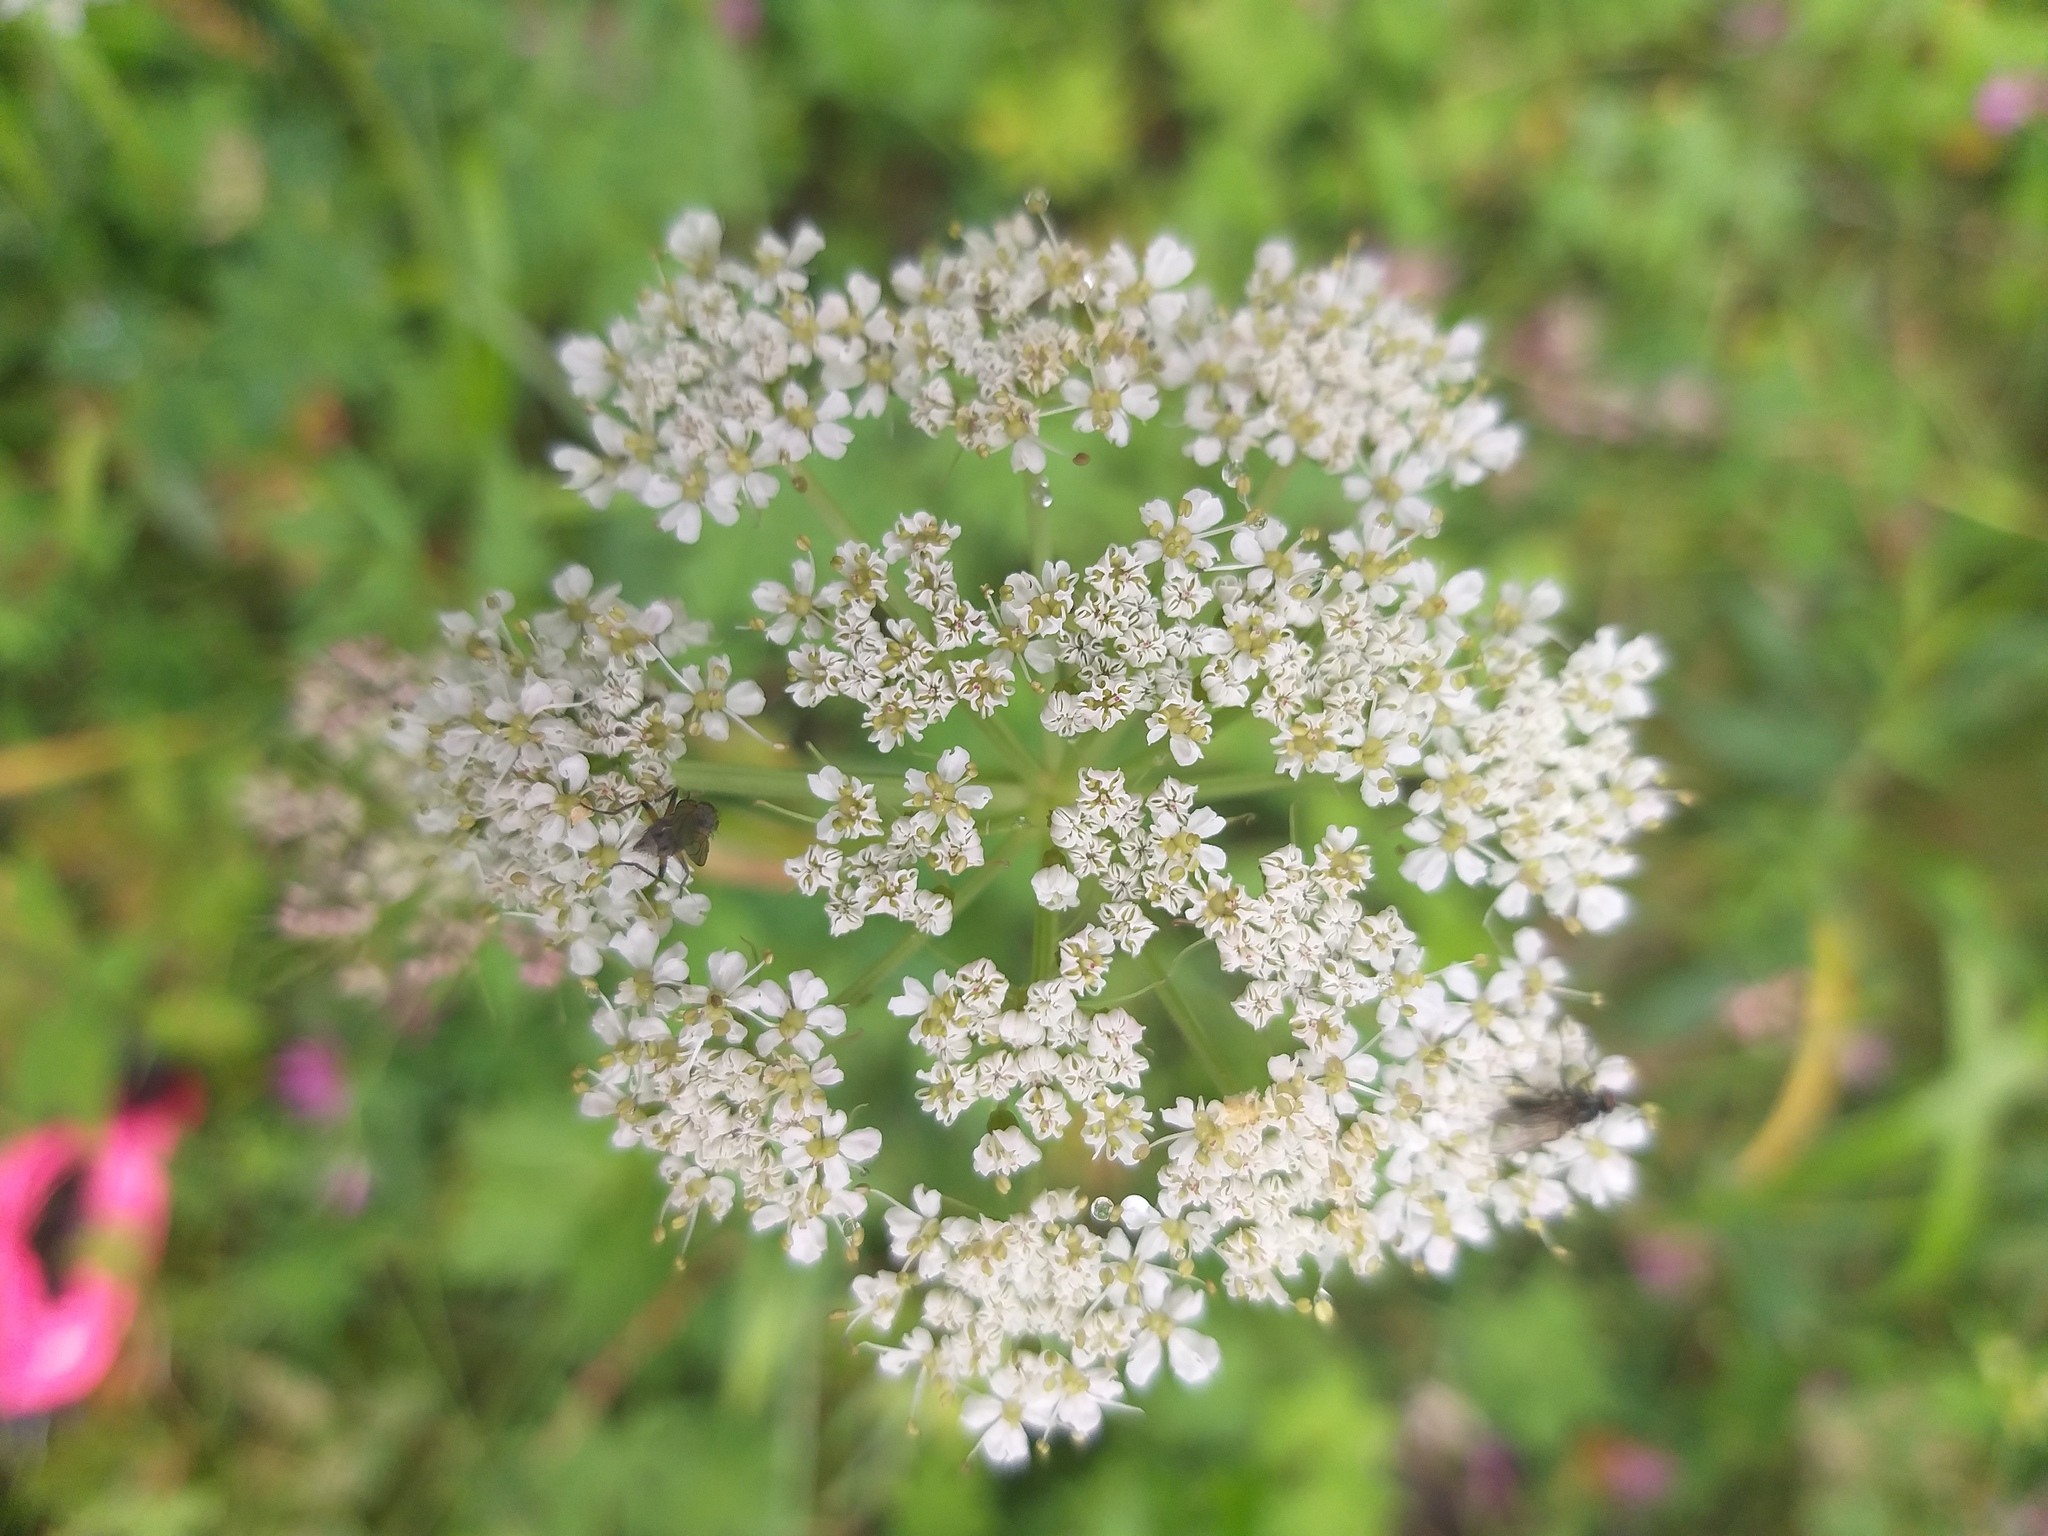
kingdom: Plantae
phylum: Tracheophyta
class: Magnoliopsida
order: Apiales
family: Apiaceae
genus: Carum
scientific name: Carum carvi
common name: Caraway
